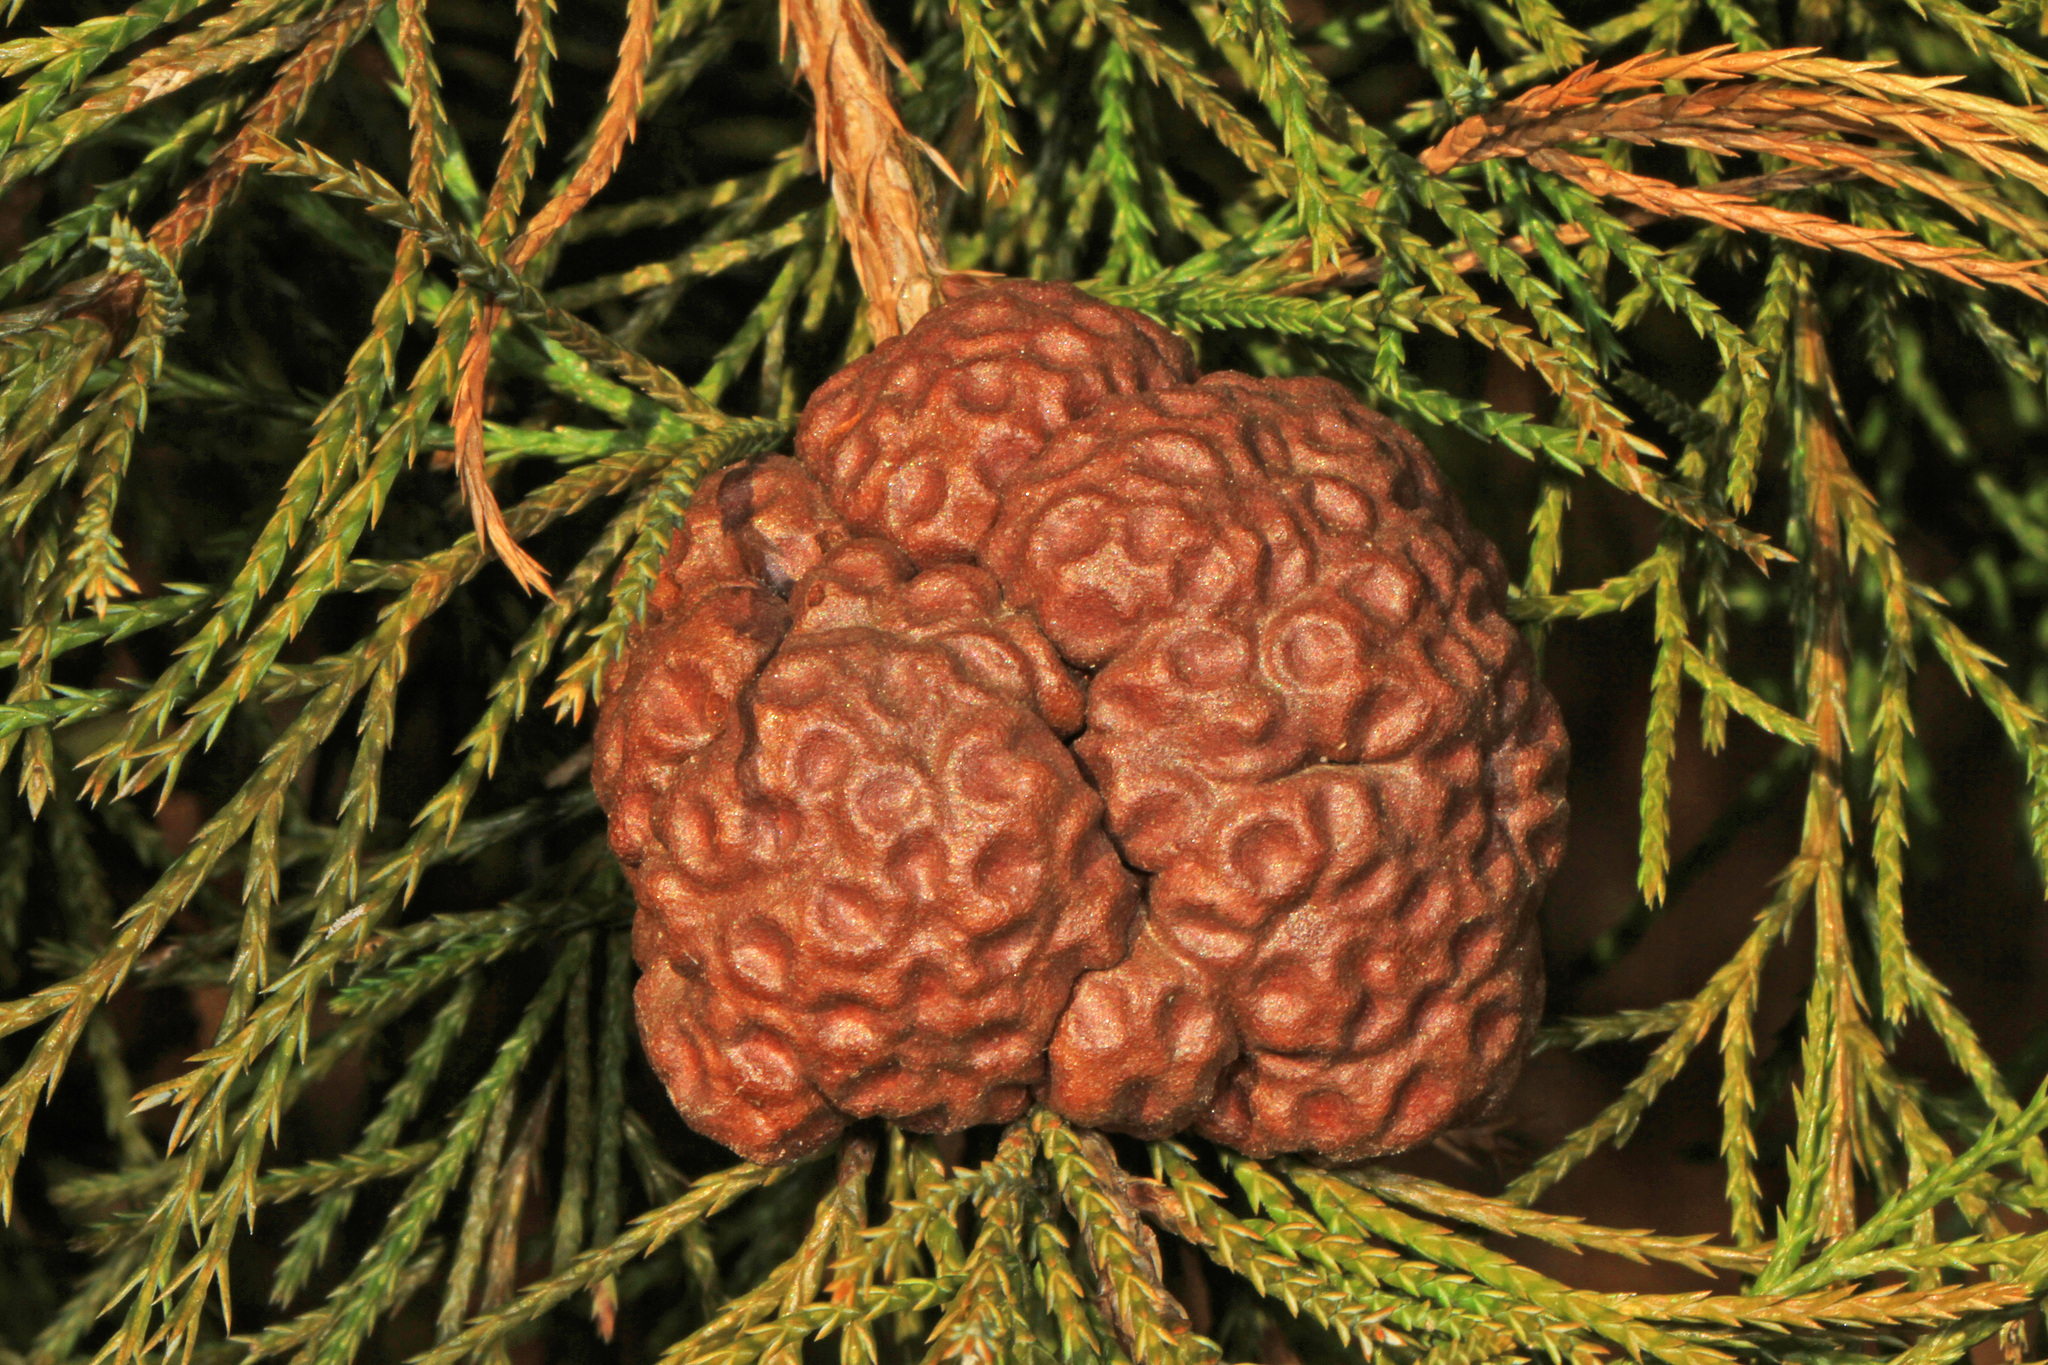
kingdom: Fungi
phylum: Basidiomycota
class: Pucciniomycetes
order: Pucciniales
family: Gymnosporangiaceae
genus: Gymnosporangium
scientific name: Gymnosporangium juniperi-virginianae
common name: Juniper-apple rust
